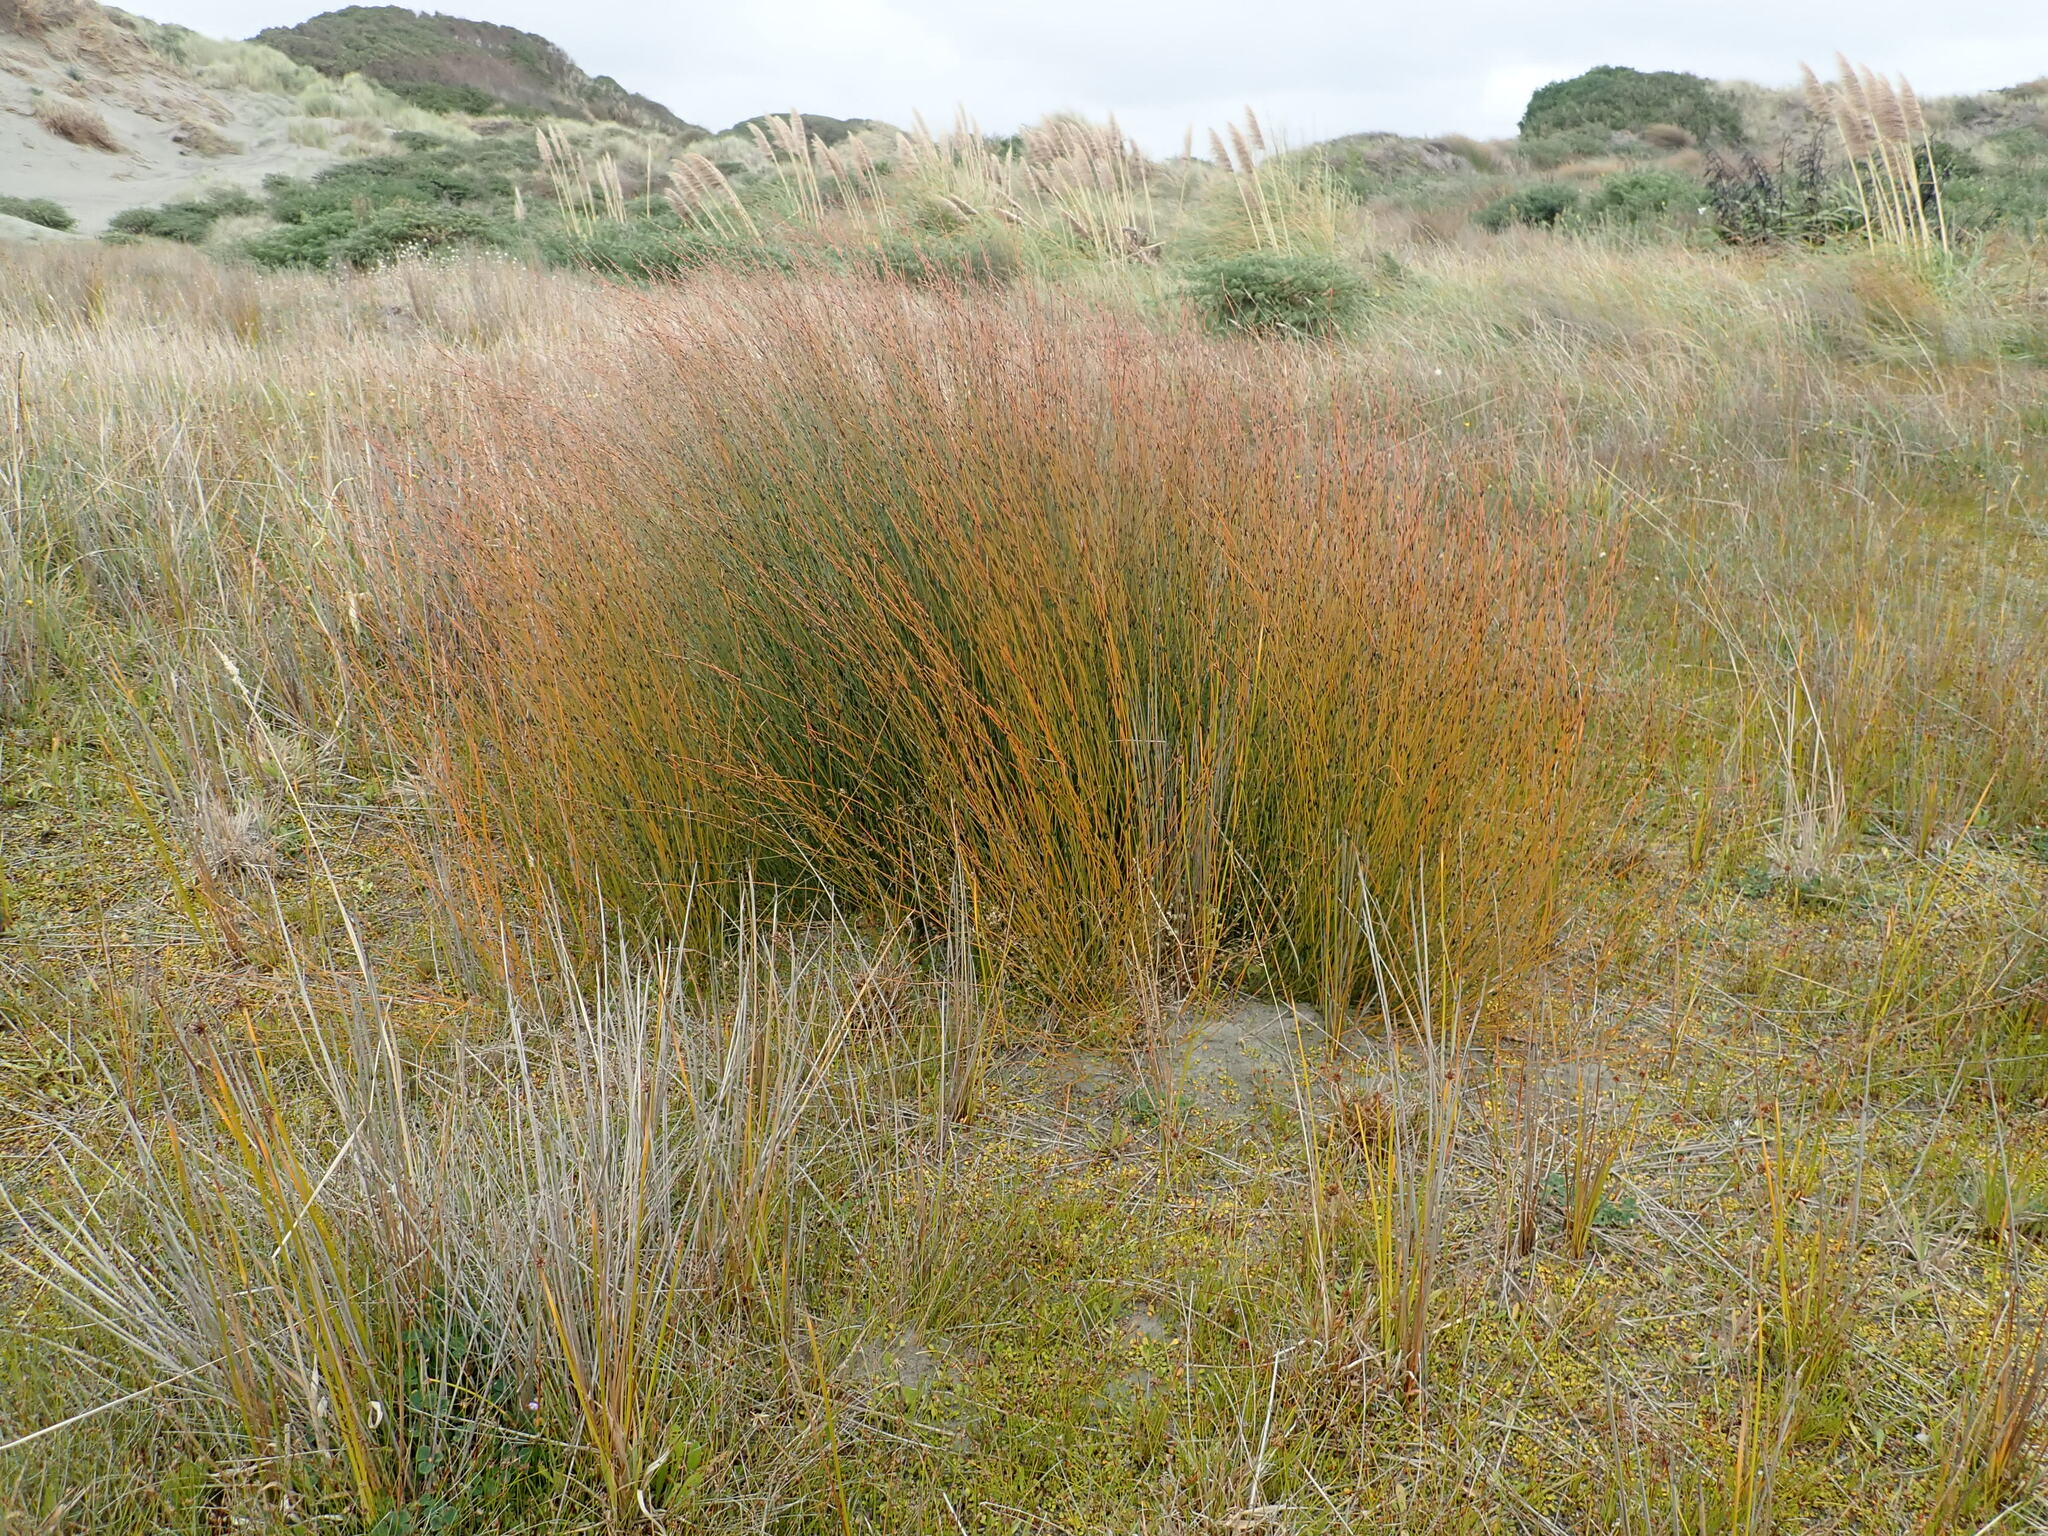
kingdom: Plantae
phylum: Tracheophyta
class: Liliopsida
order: Poales
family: Restionaceae
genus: Apodasmia
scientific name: Apodasmia similis
